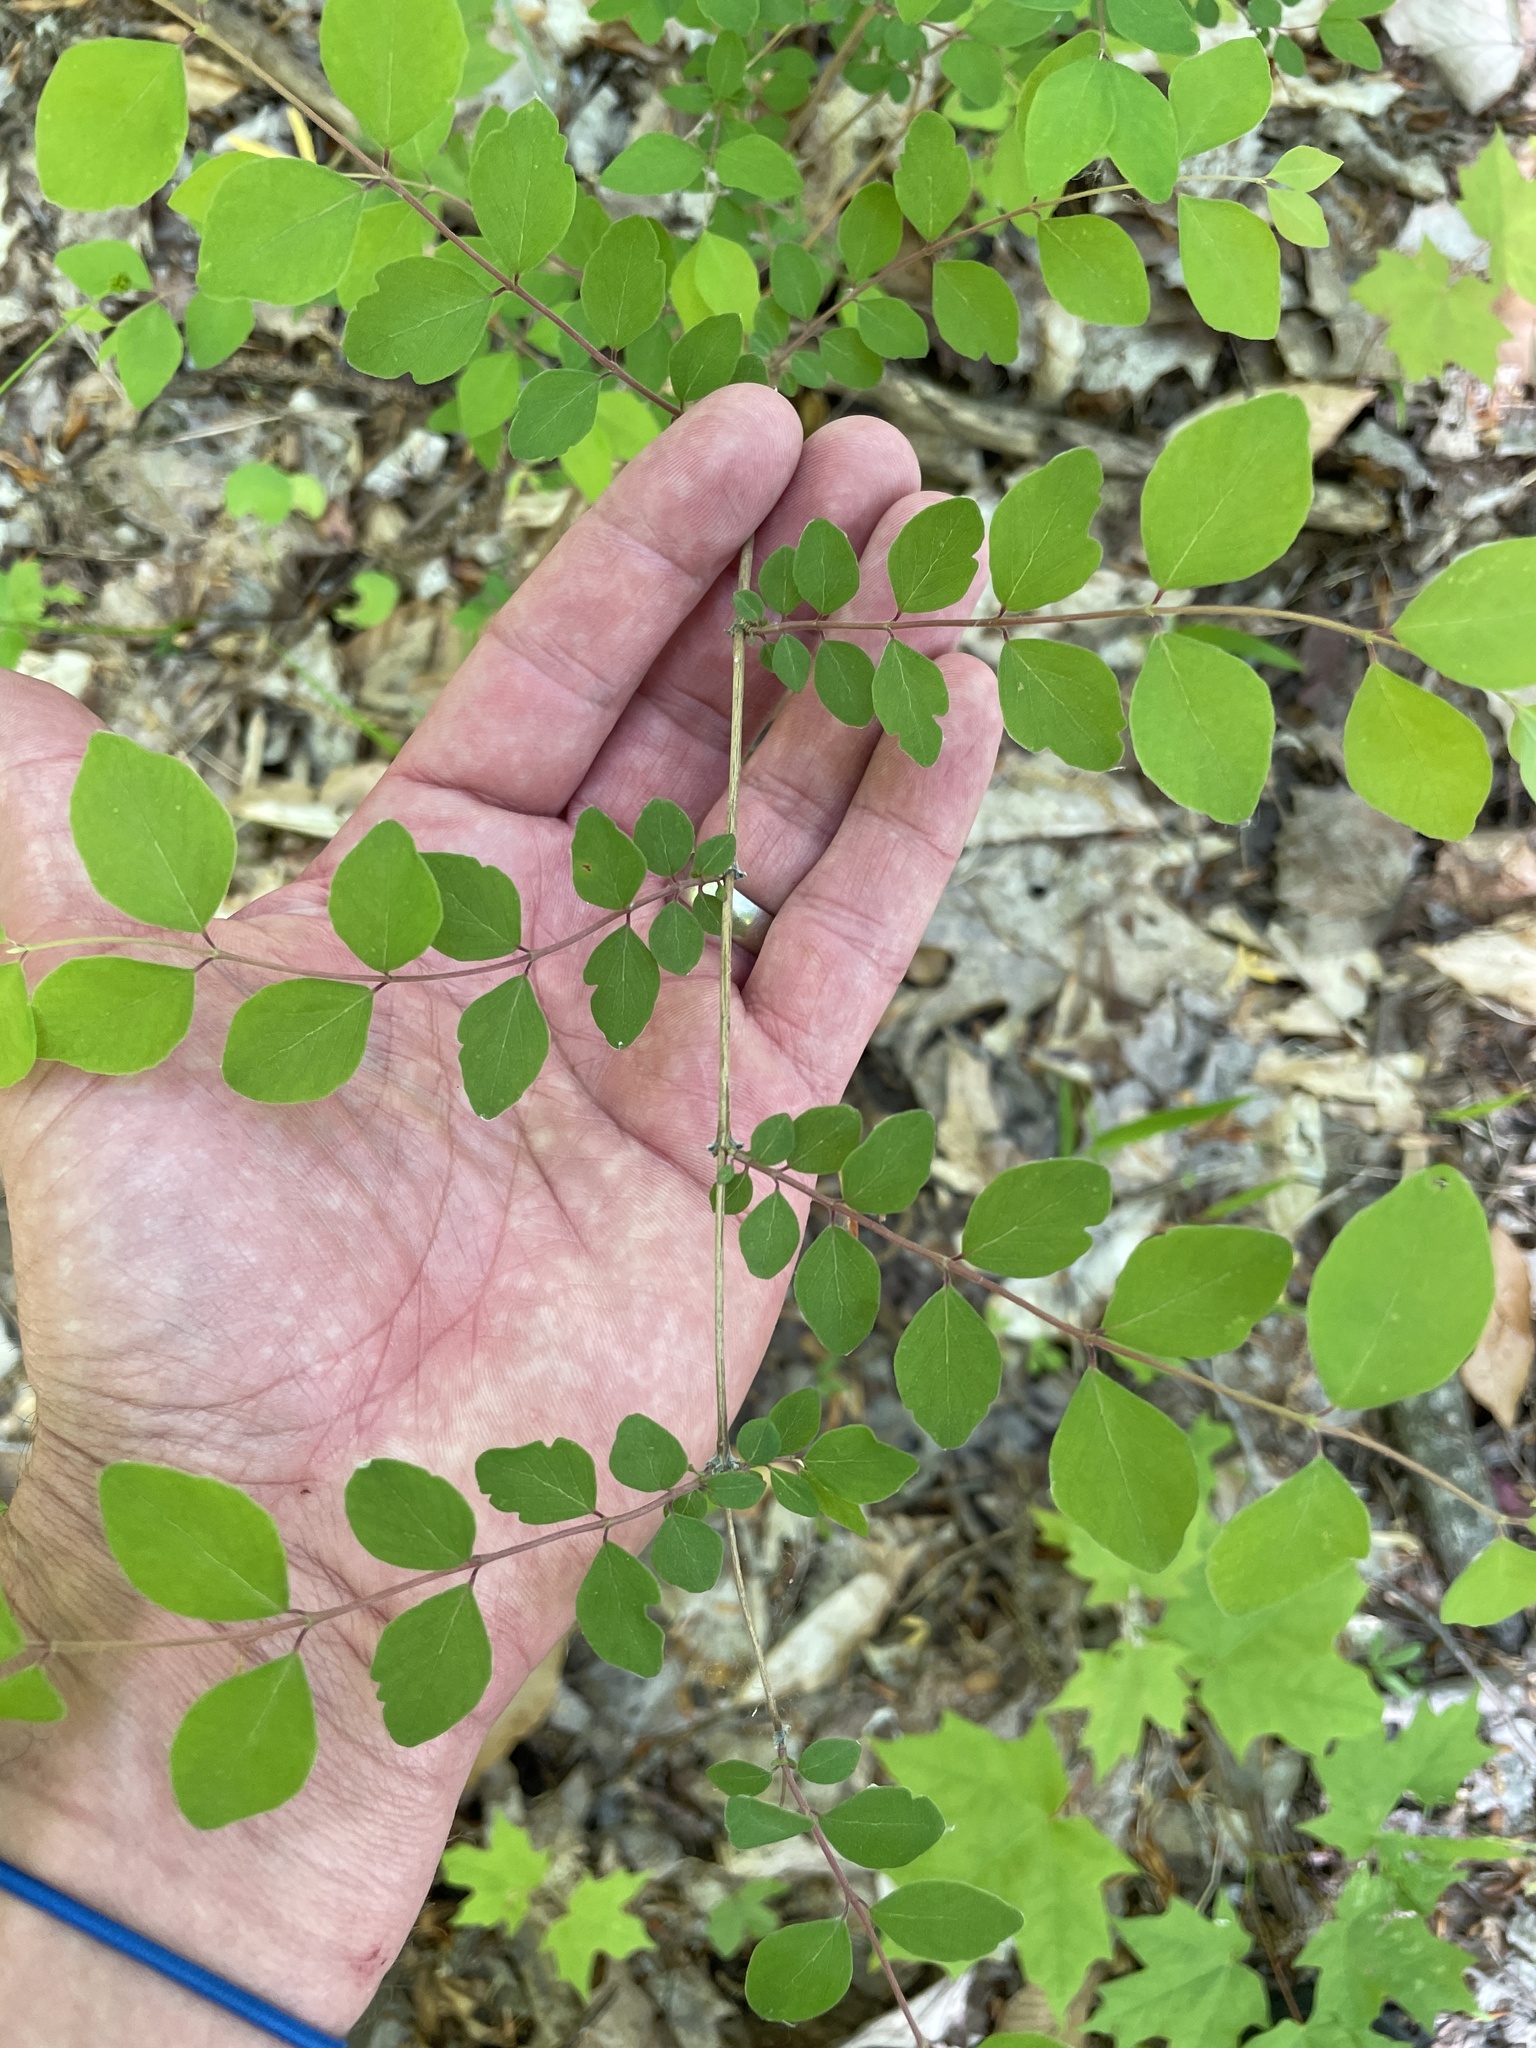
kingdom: Plantae
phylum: Tracheophyta
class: Magnoliopsida
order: Dipsacales
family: Caprifoliaceae
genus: Symphoricarpos
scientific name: Symphoricarpos orbiculatus
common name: Coralberry
